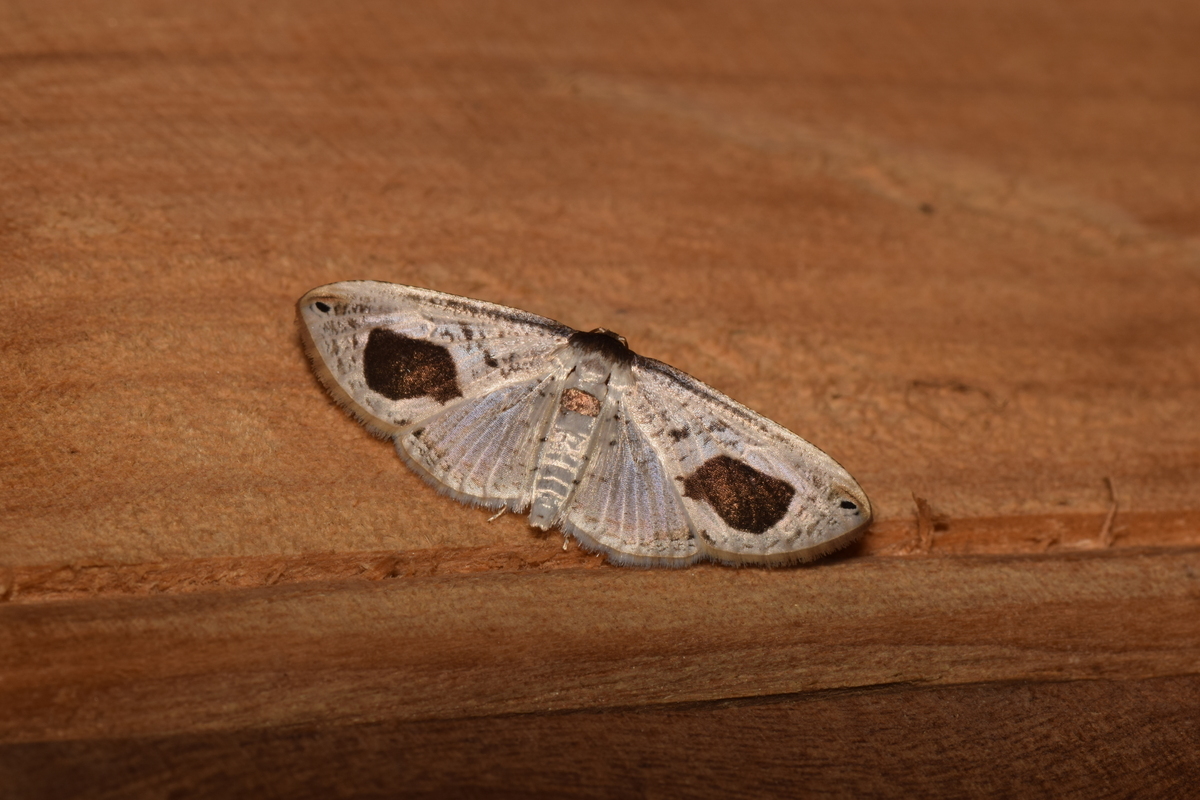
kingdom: Animalia
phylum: Arthropoda
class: Insecta
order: Lepidoptera
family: Thyrididae
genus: Calindoea
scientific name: Calindoea
